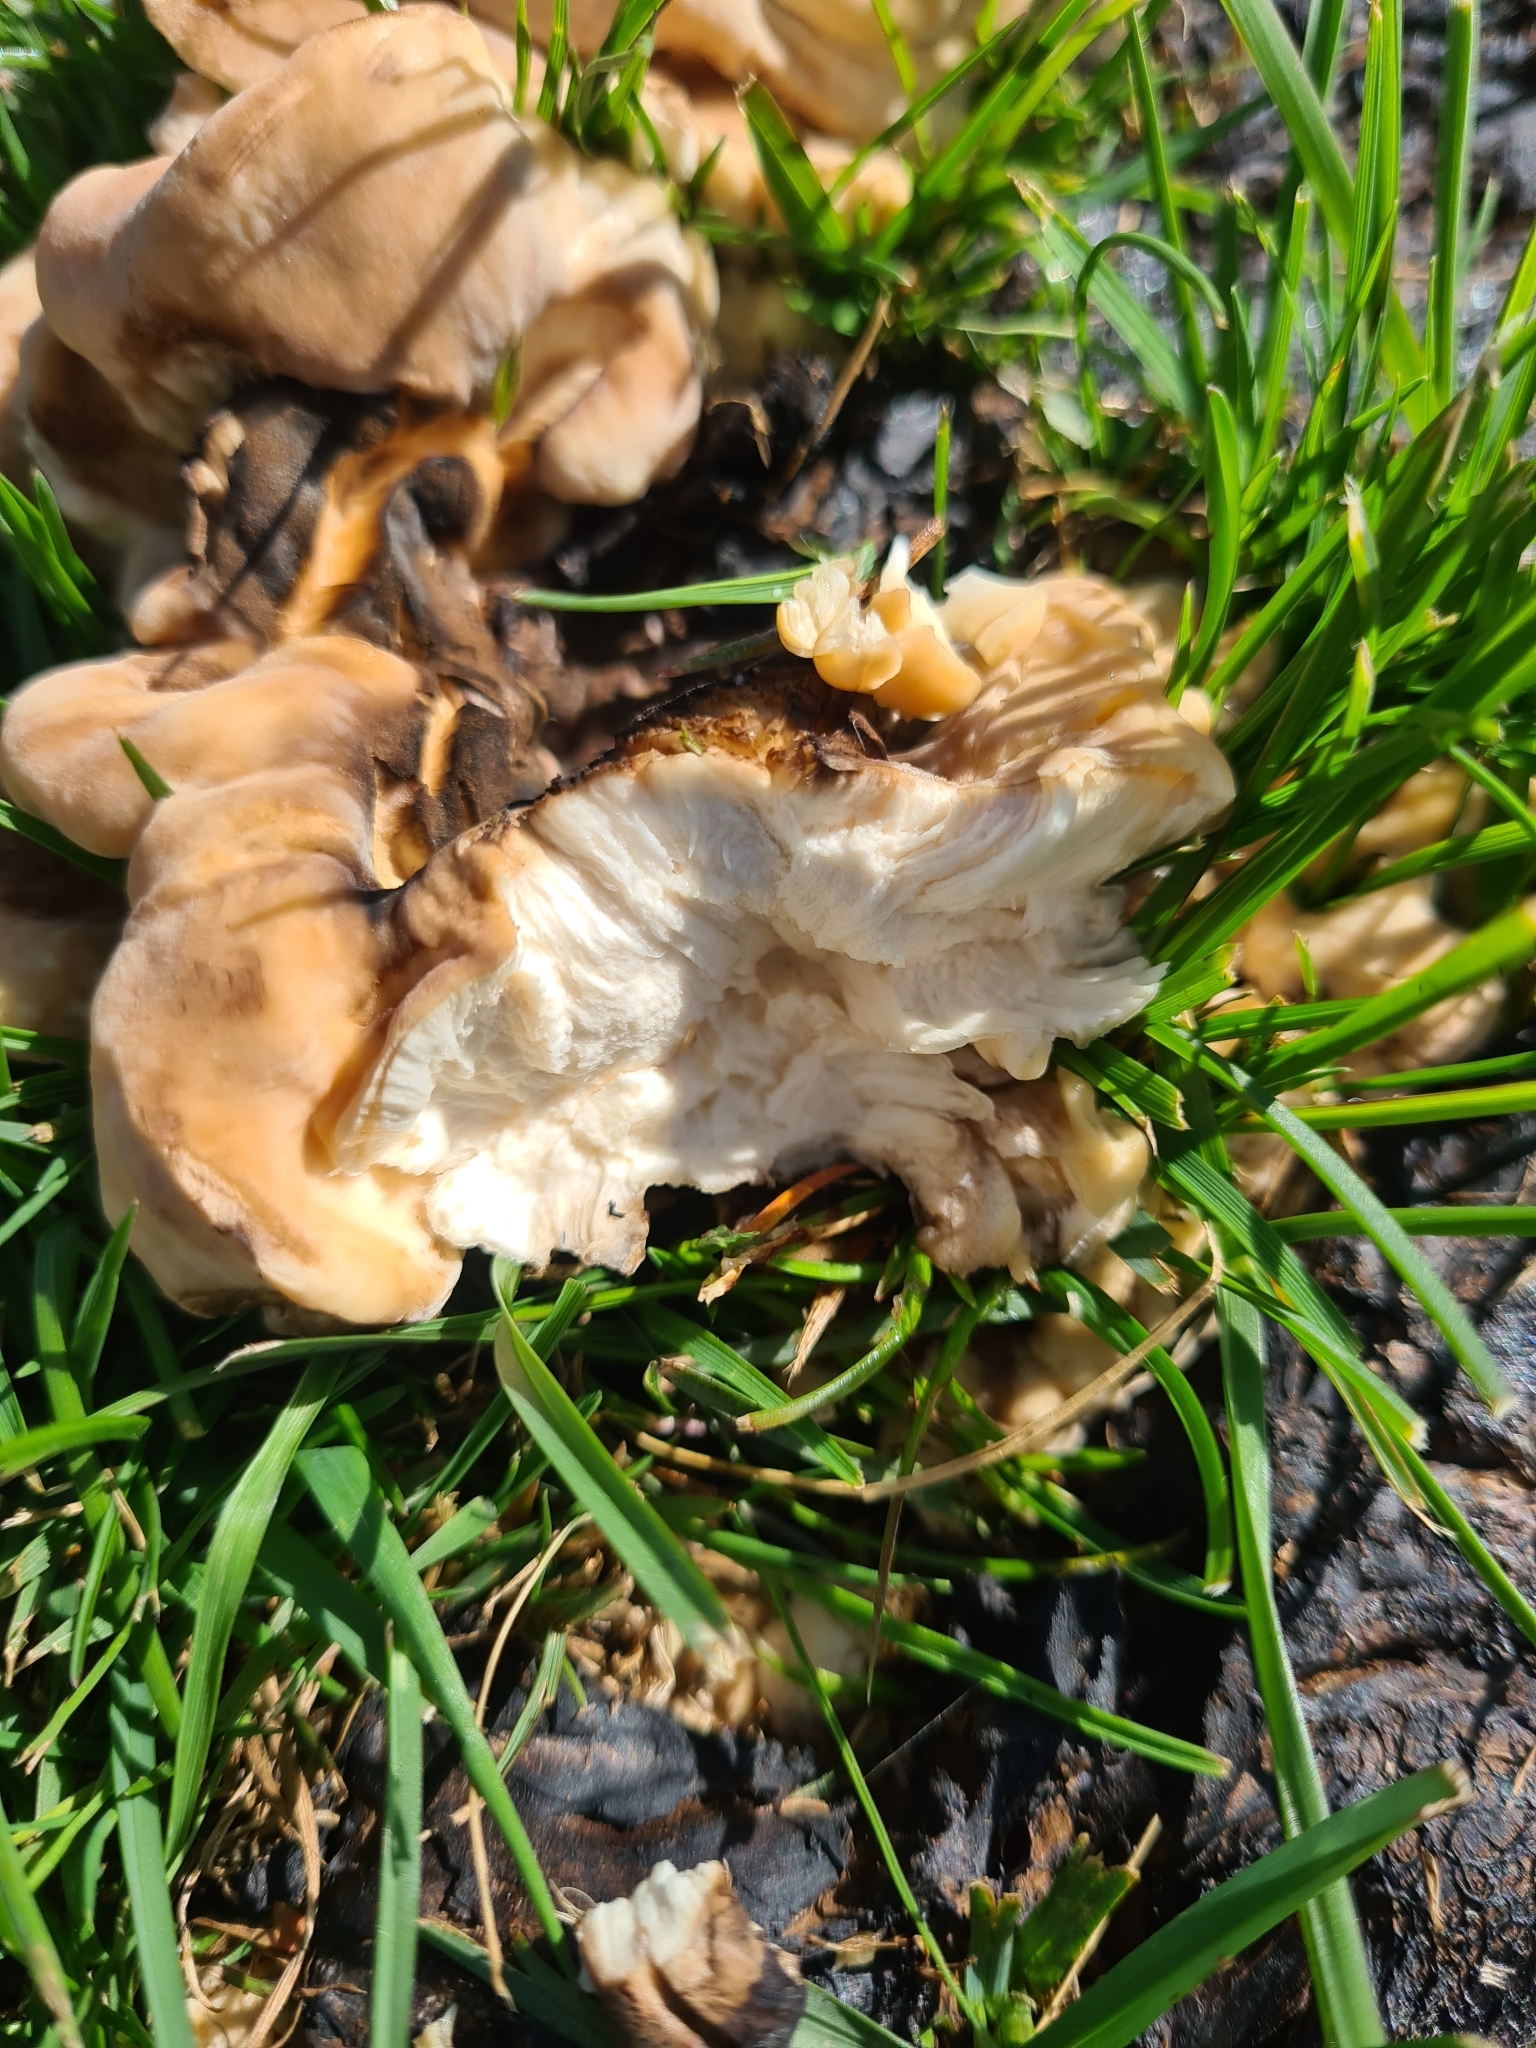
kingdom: Fungi
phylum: Basidiomycota
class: Agaricomycetes
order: Polyporales
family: Meripilaceae
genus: Meripilus
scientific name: Meripilus giganteus
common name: Giant polypore
